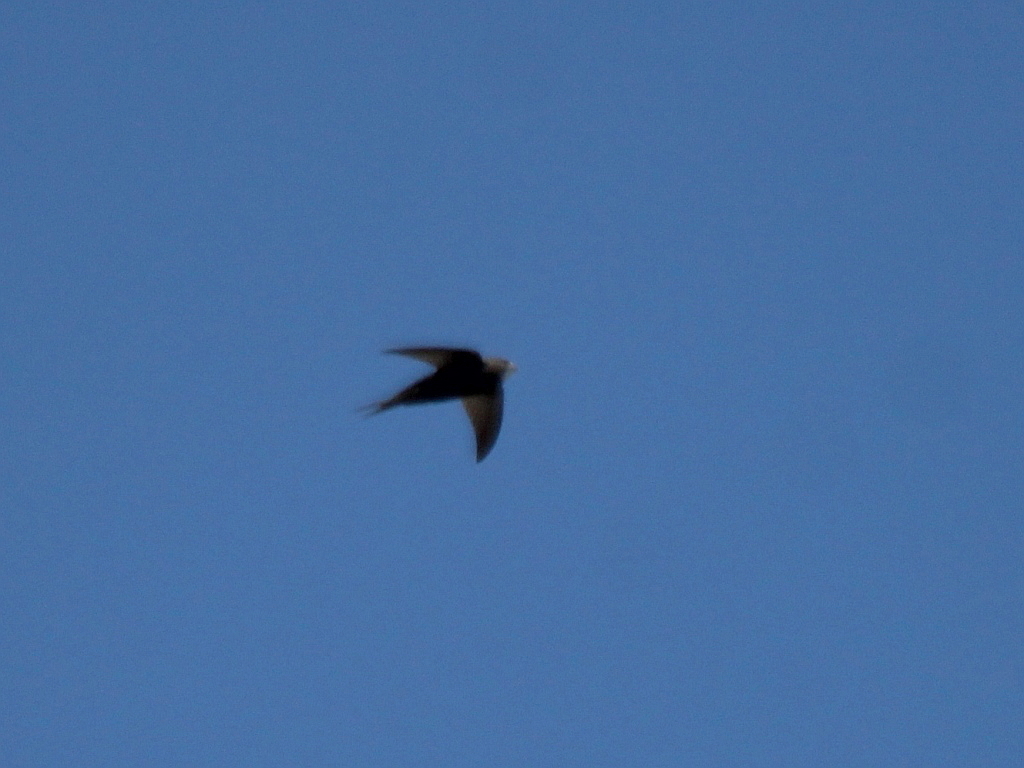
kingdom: Animalia
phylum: Chordata
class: Aves
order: Apodiformes
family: Apodidae
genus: Apus
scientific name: Apus apus
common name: Common swift
